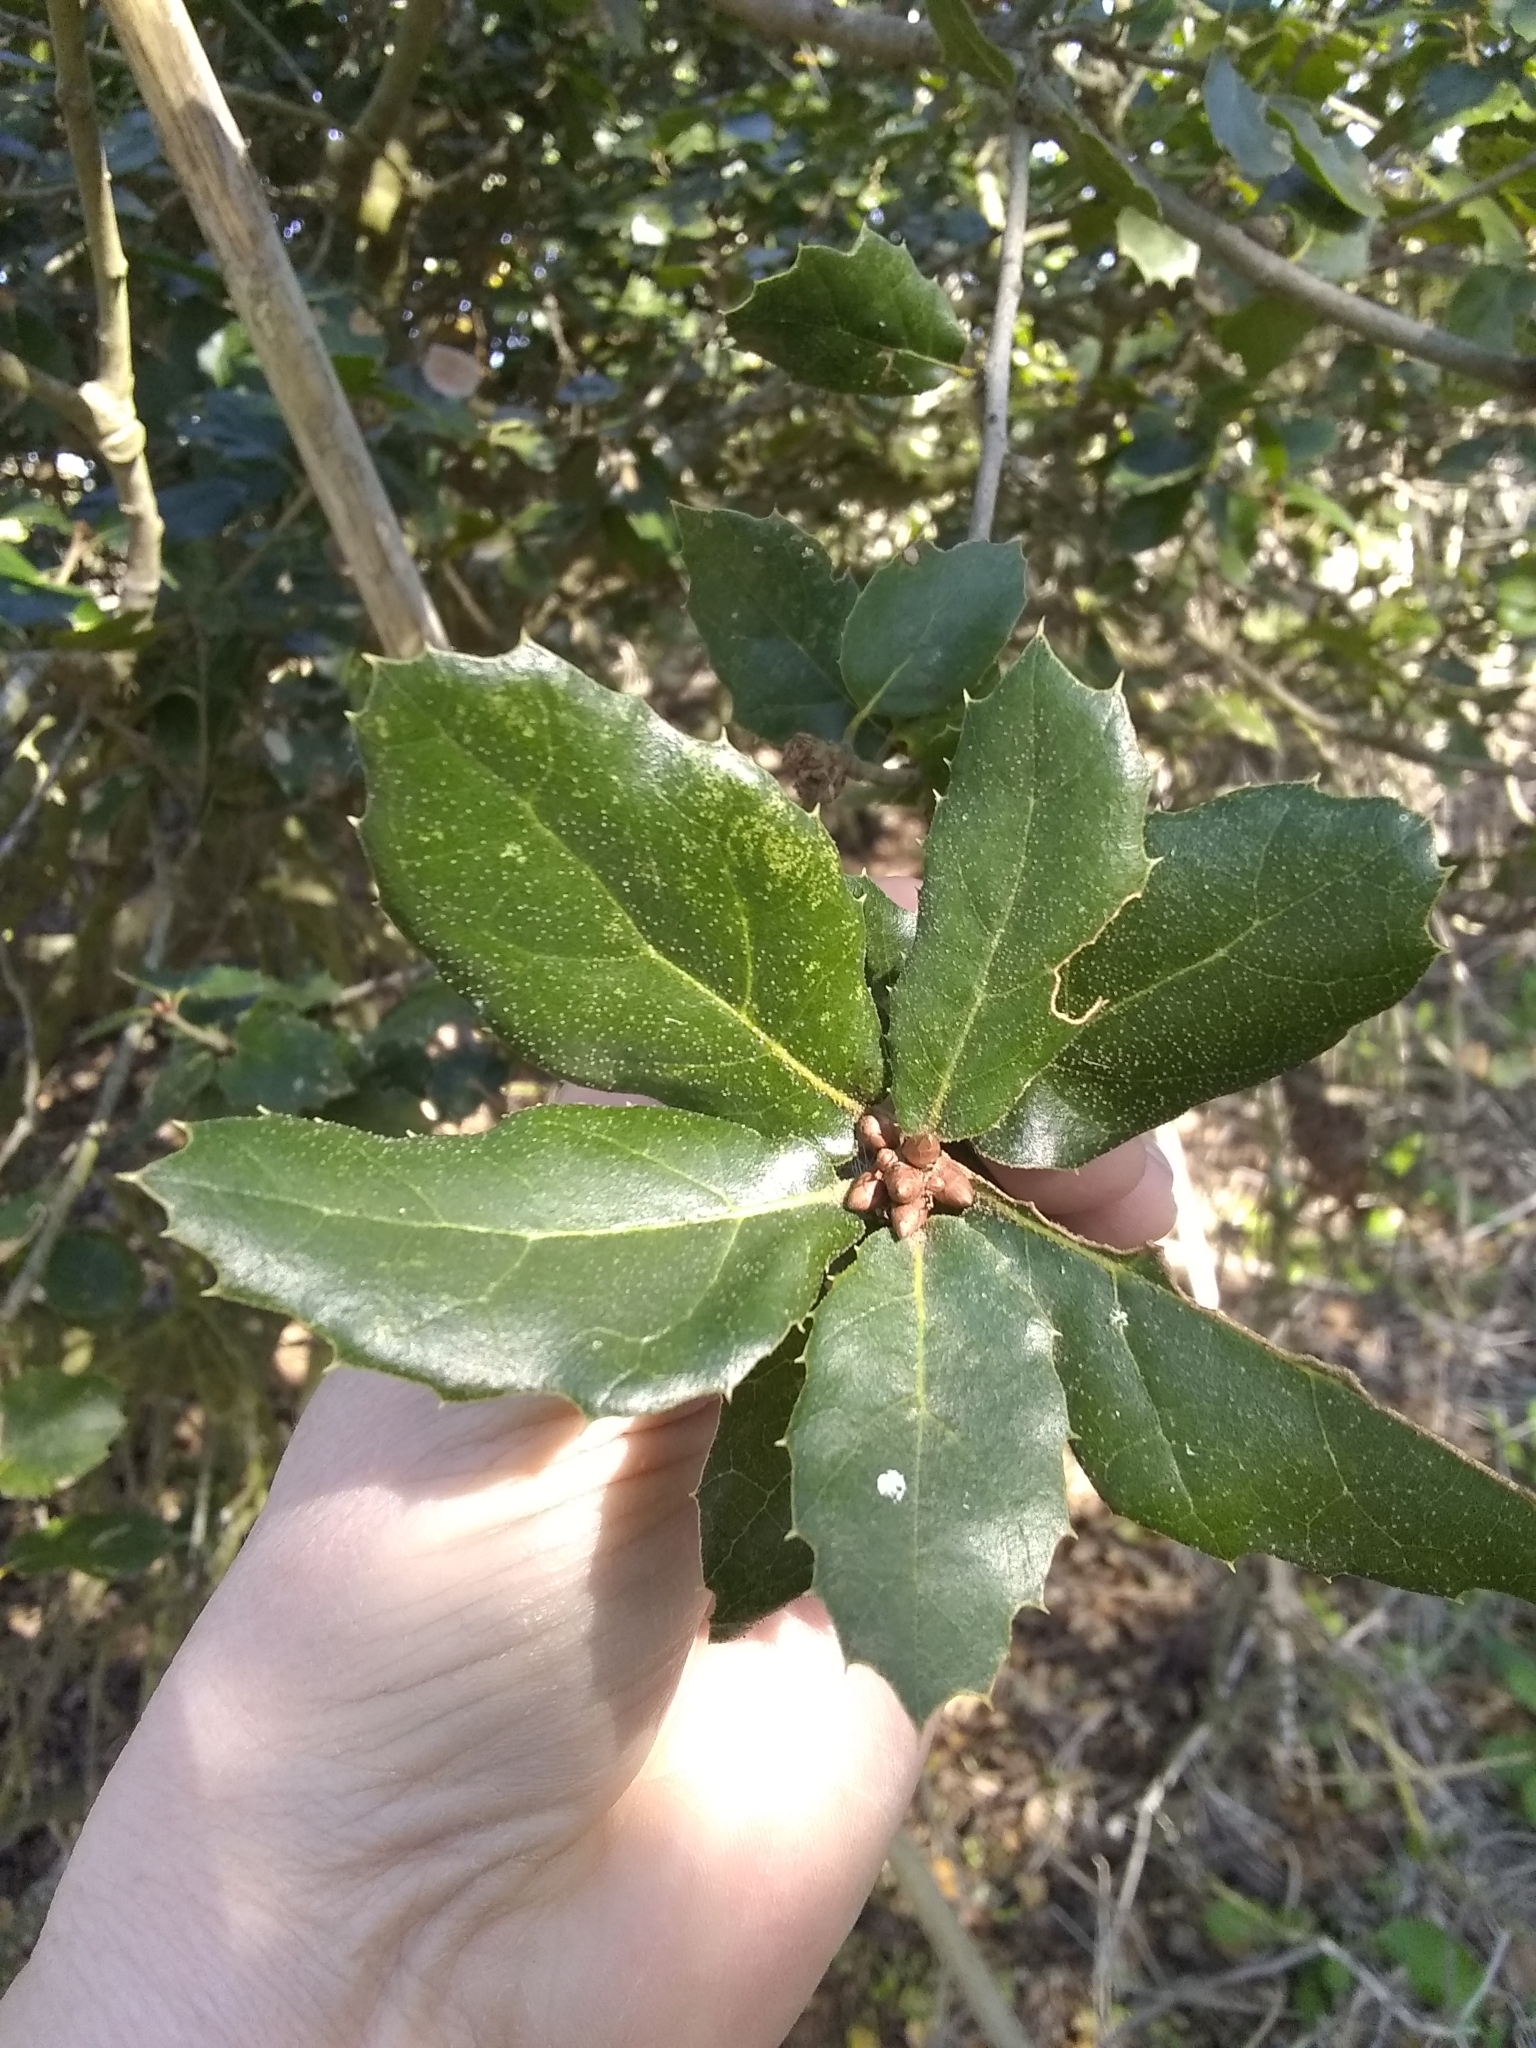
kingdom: Plantae
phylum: Tracheophyta
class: Magnoliopsida
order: Fagales
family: Fagaceae
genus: Quercus
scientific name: Quercus agrifolia
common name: California live oak
